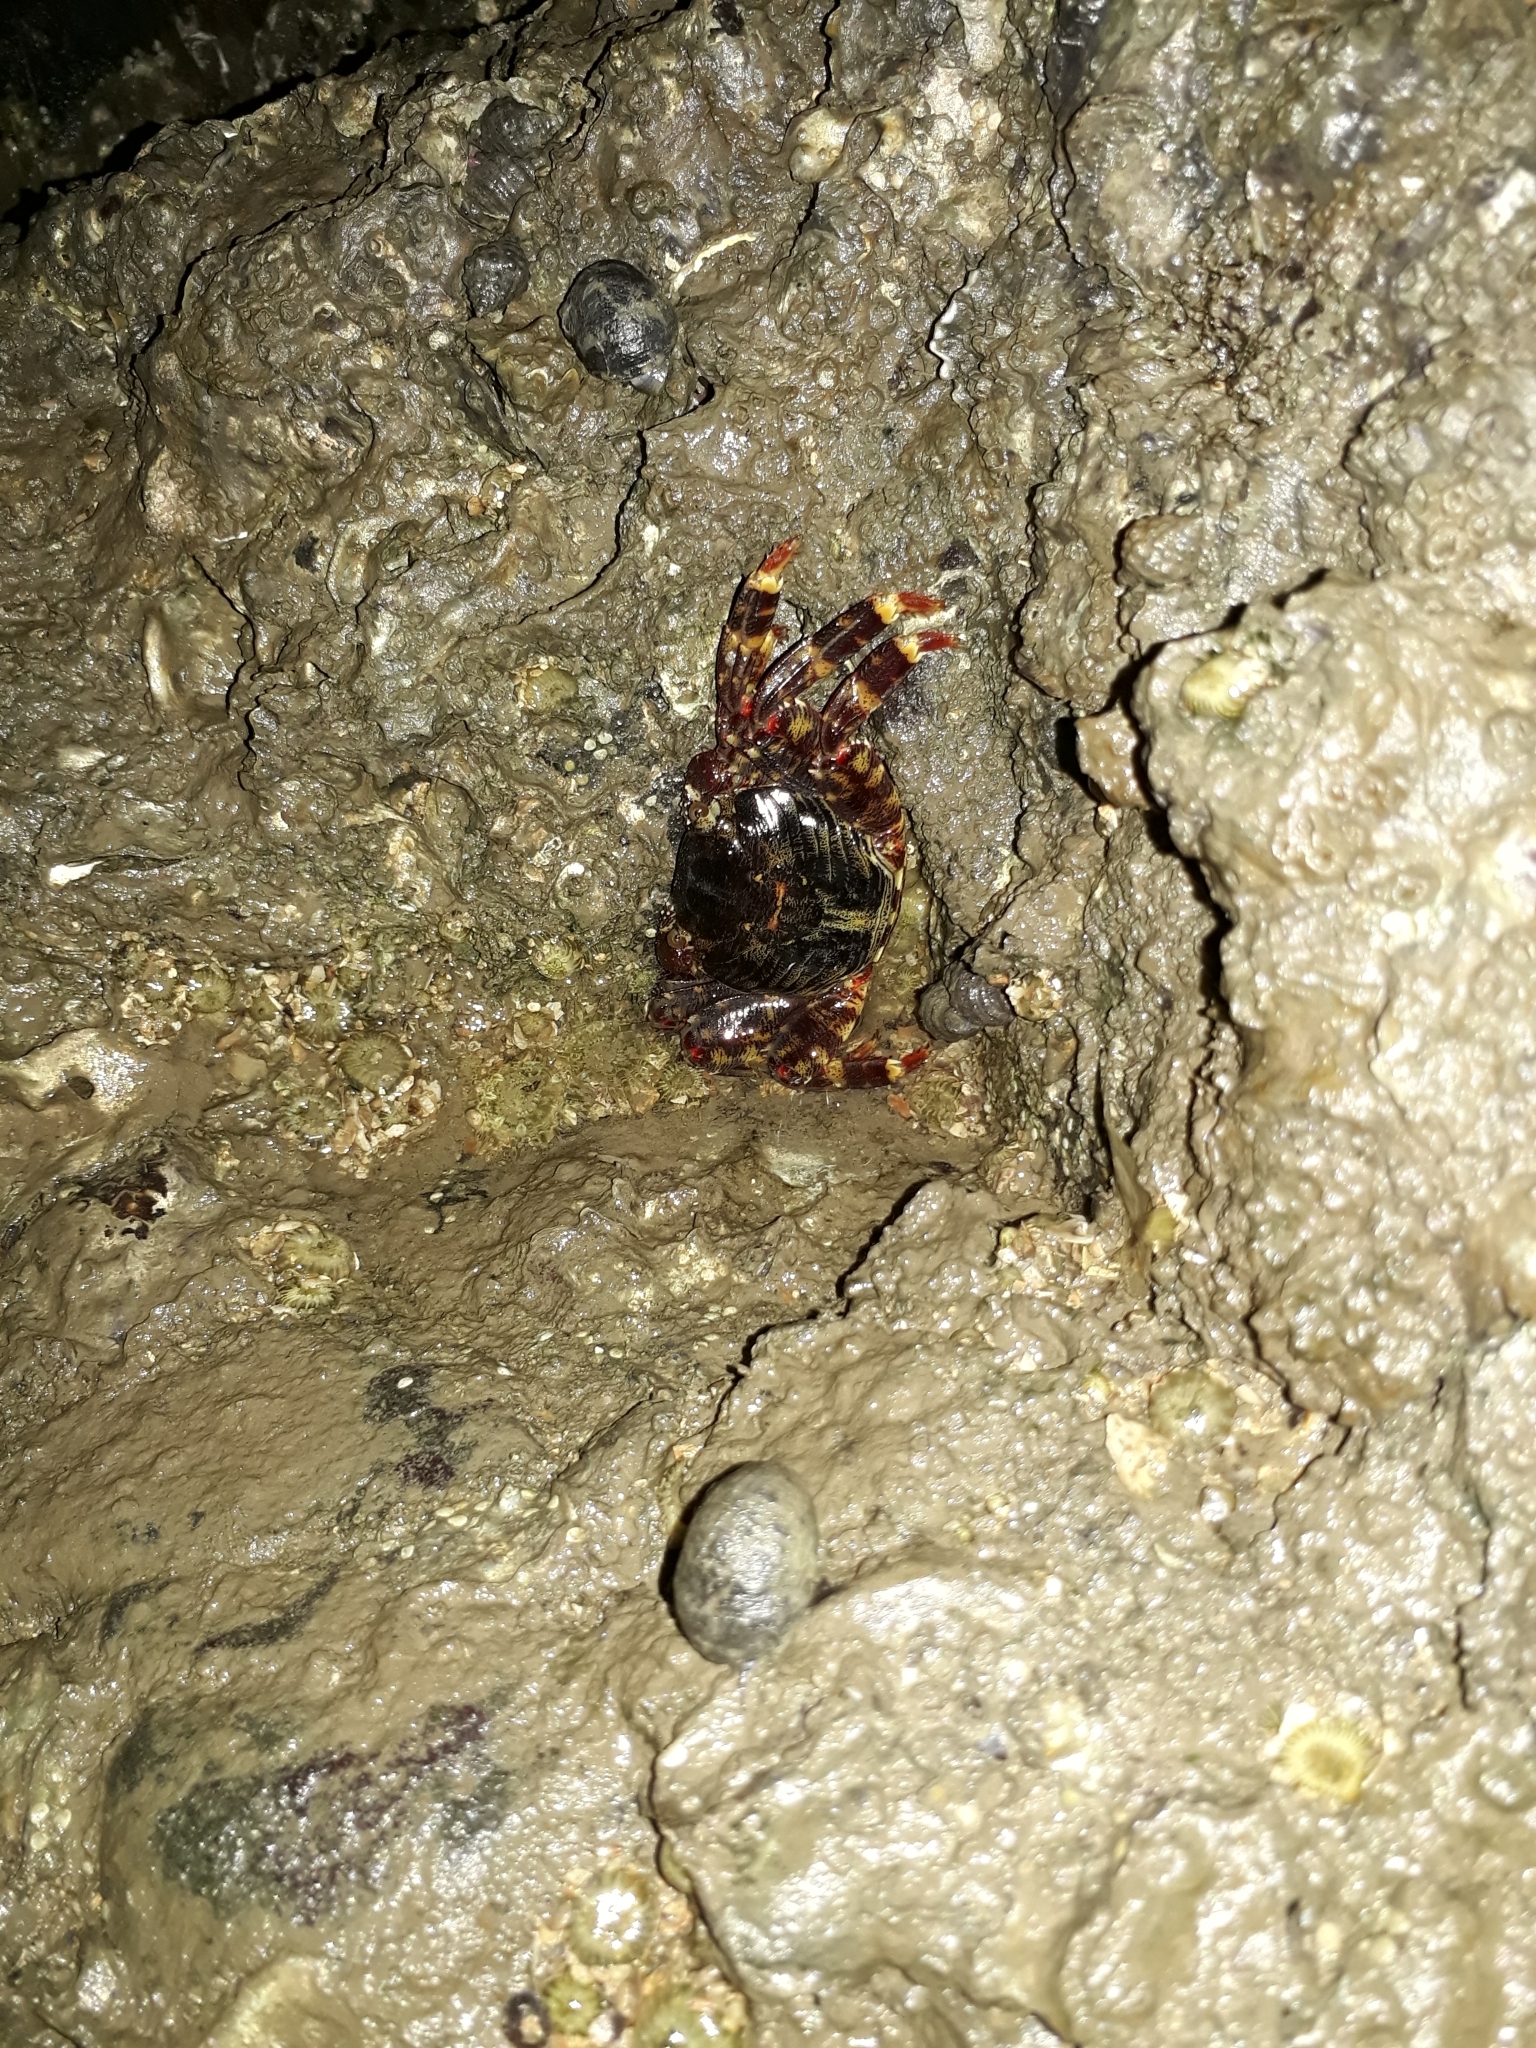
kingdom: Animalia
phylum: Arthropoda
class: Malacostraca
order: Decapoda
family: Grapsidae
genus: Grapsus
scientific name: Grapsus albolineatus
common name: Mottled lightfoot crab
